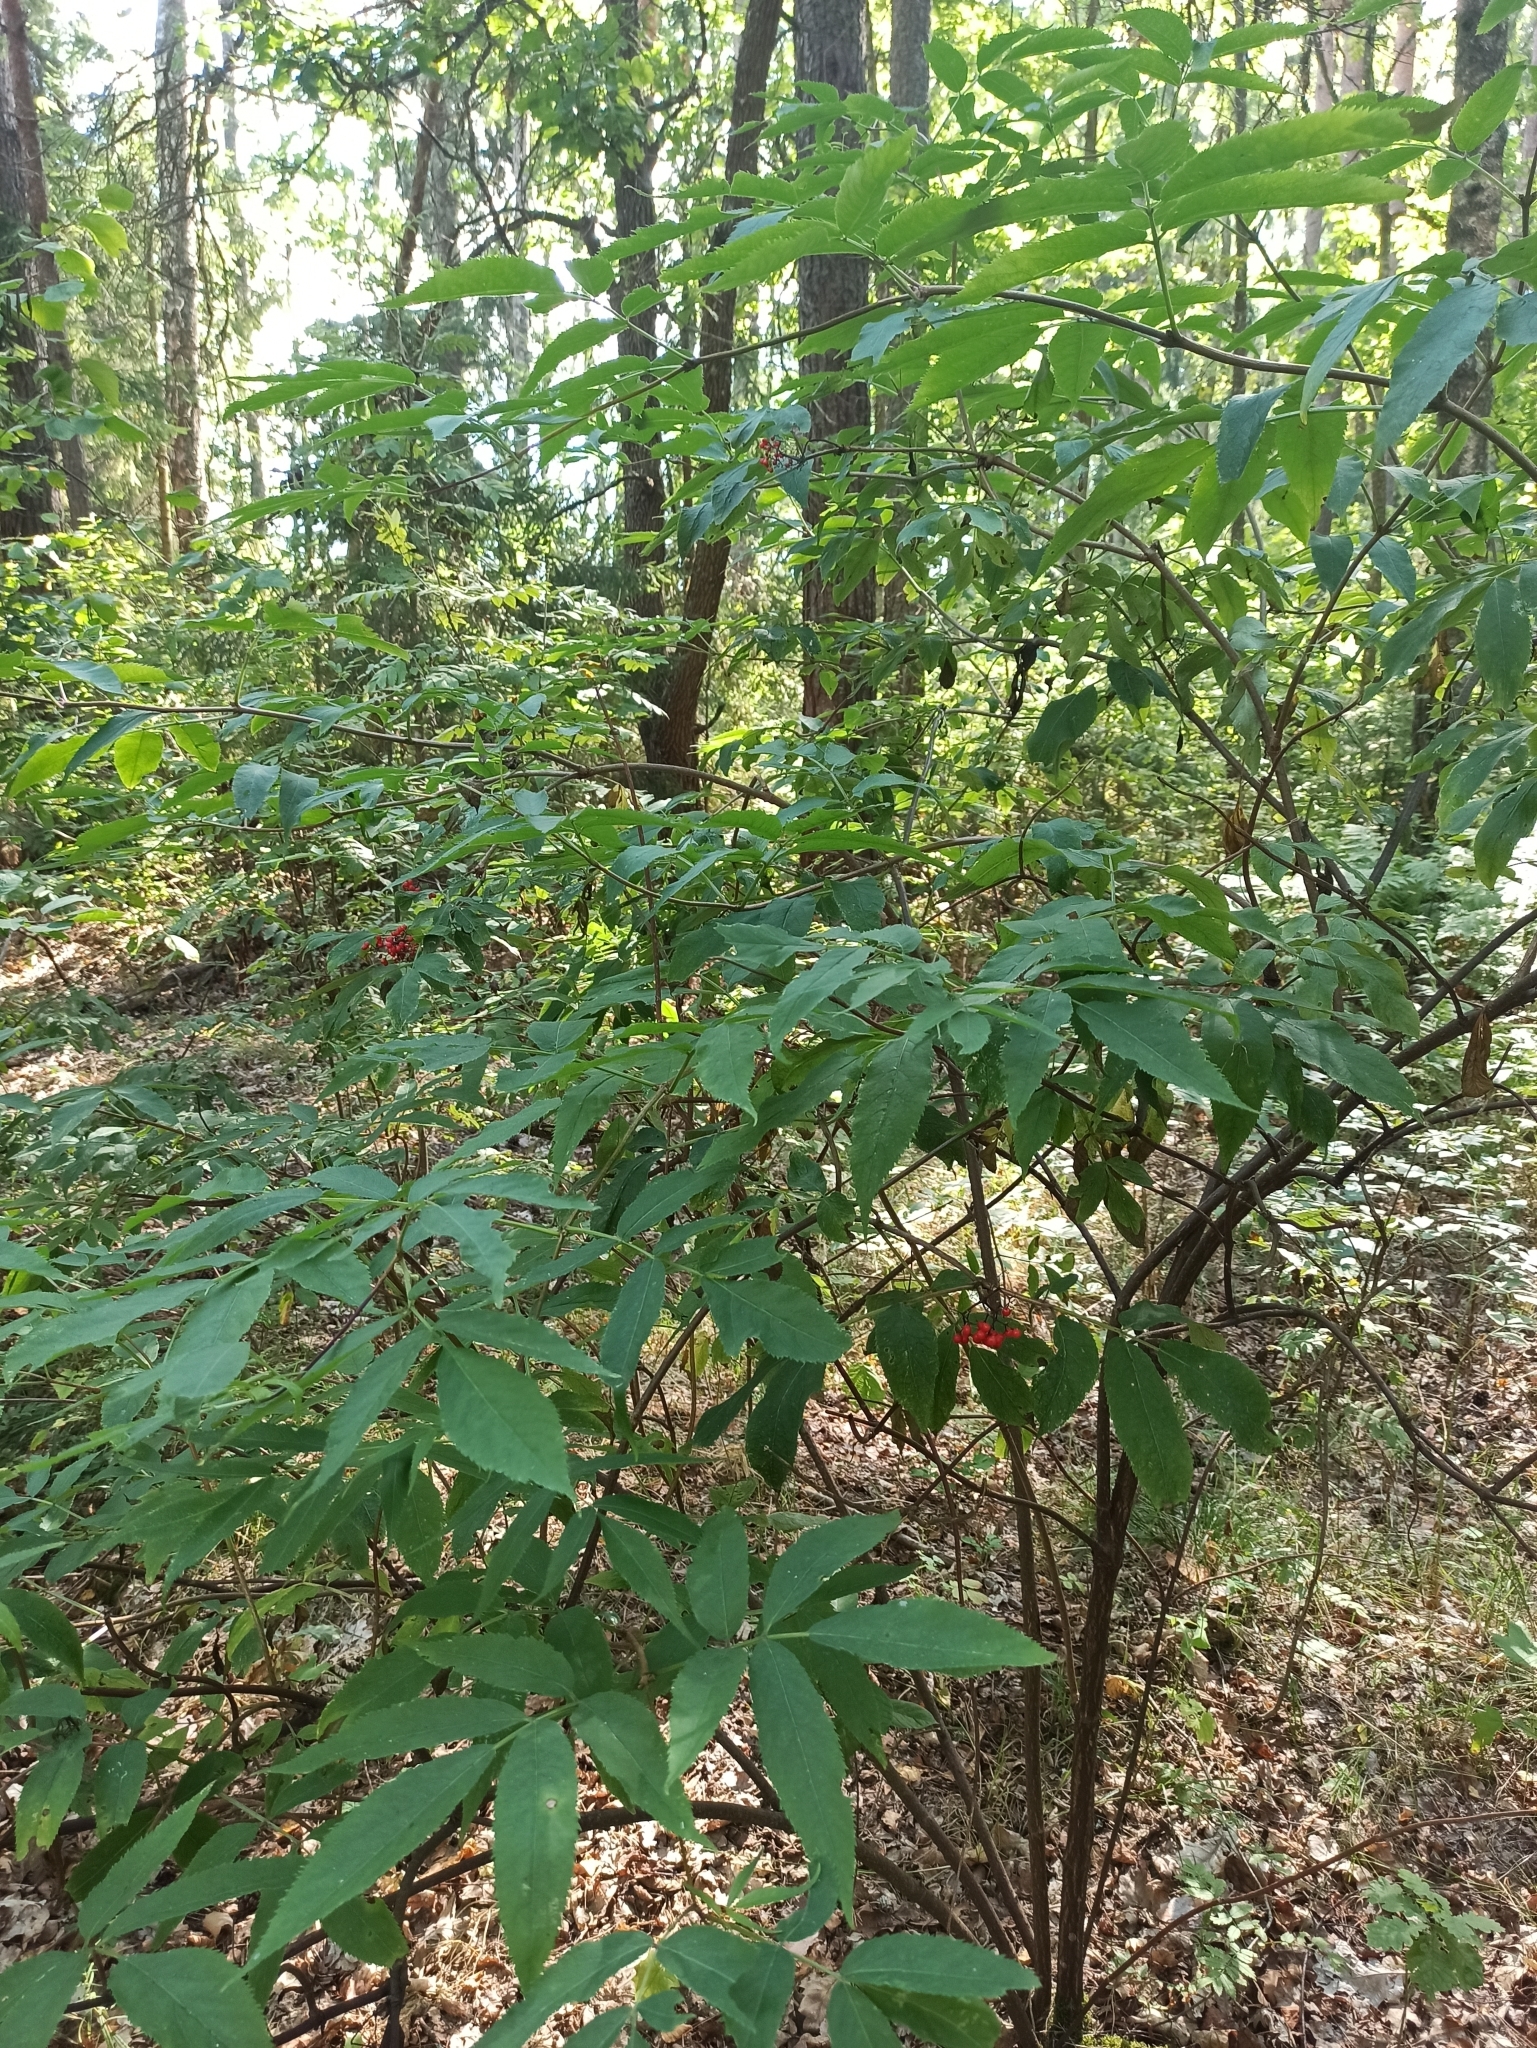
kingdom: Plantae
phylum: Tracheophyta
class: Magnoliopsida
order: Dipsacales
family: Viburnaceae
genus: Sambucus
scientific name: Sambucus racemosa
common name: Red-berried elder
